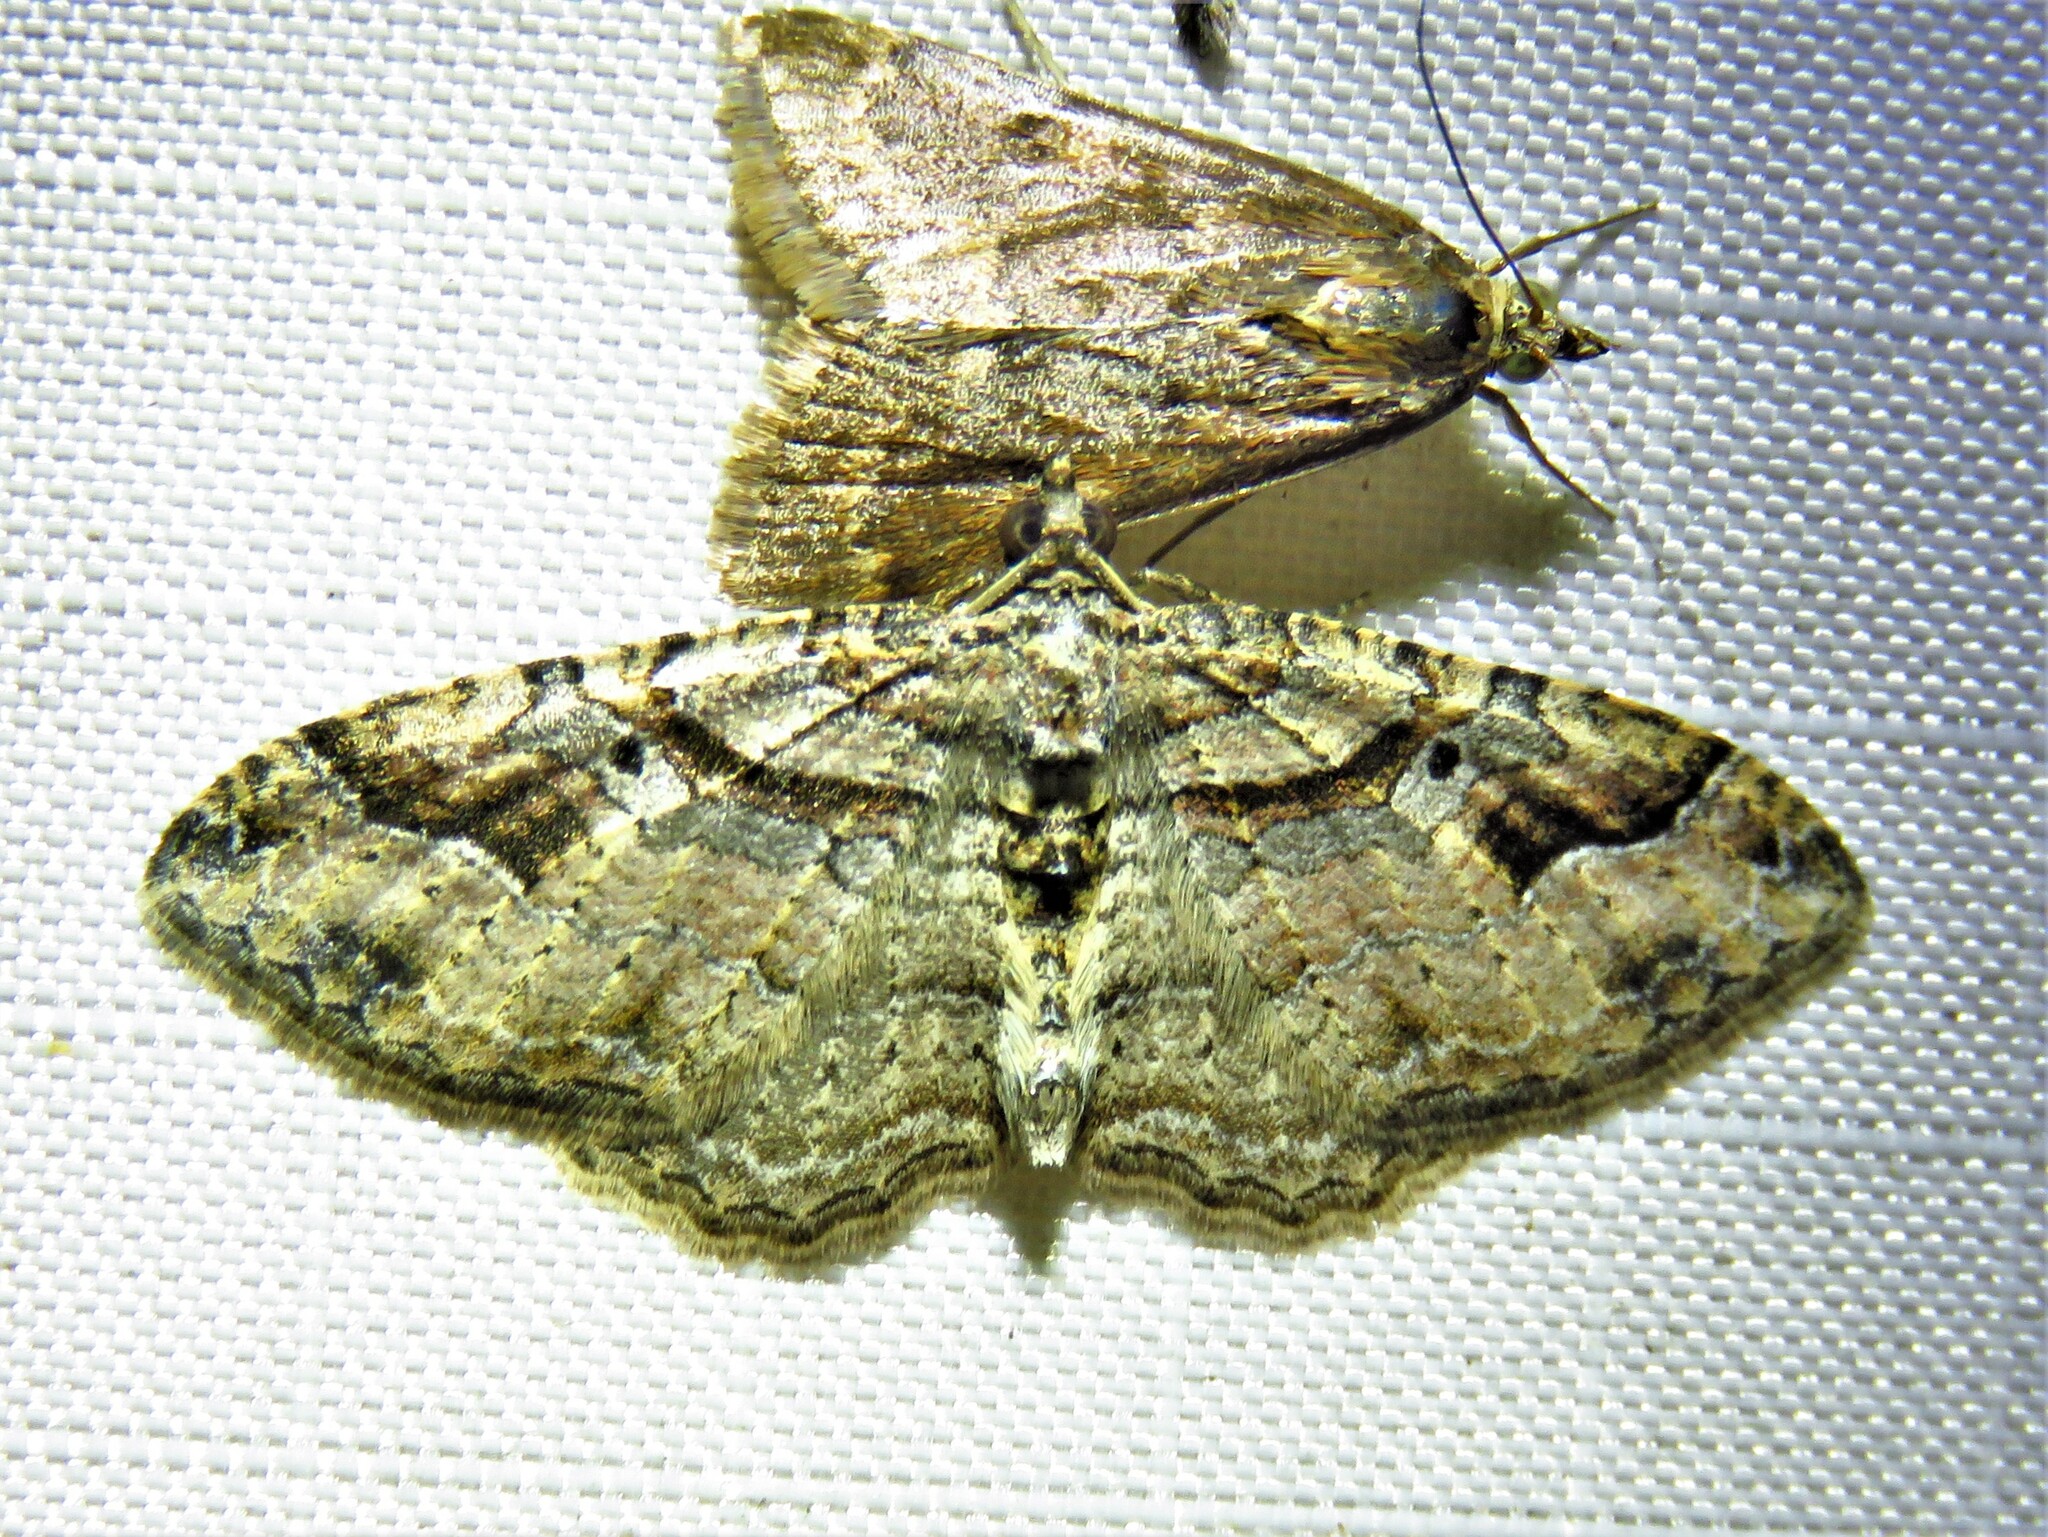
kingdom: Animalia
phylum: Arthropoda
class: Insecta
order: Lepidoptera
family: Geometridae
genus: Costaconvexa
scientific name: Costaconvexa centrostrigaria
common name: Bent-line carpet
